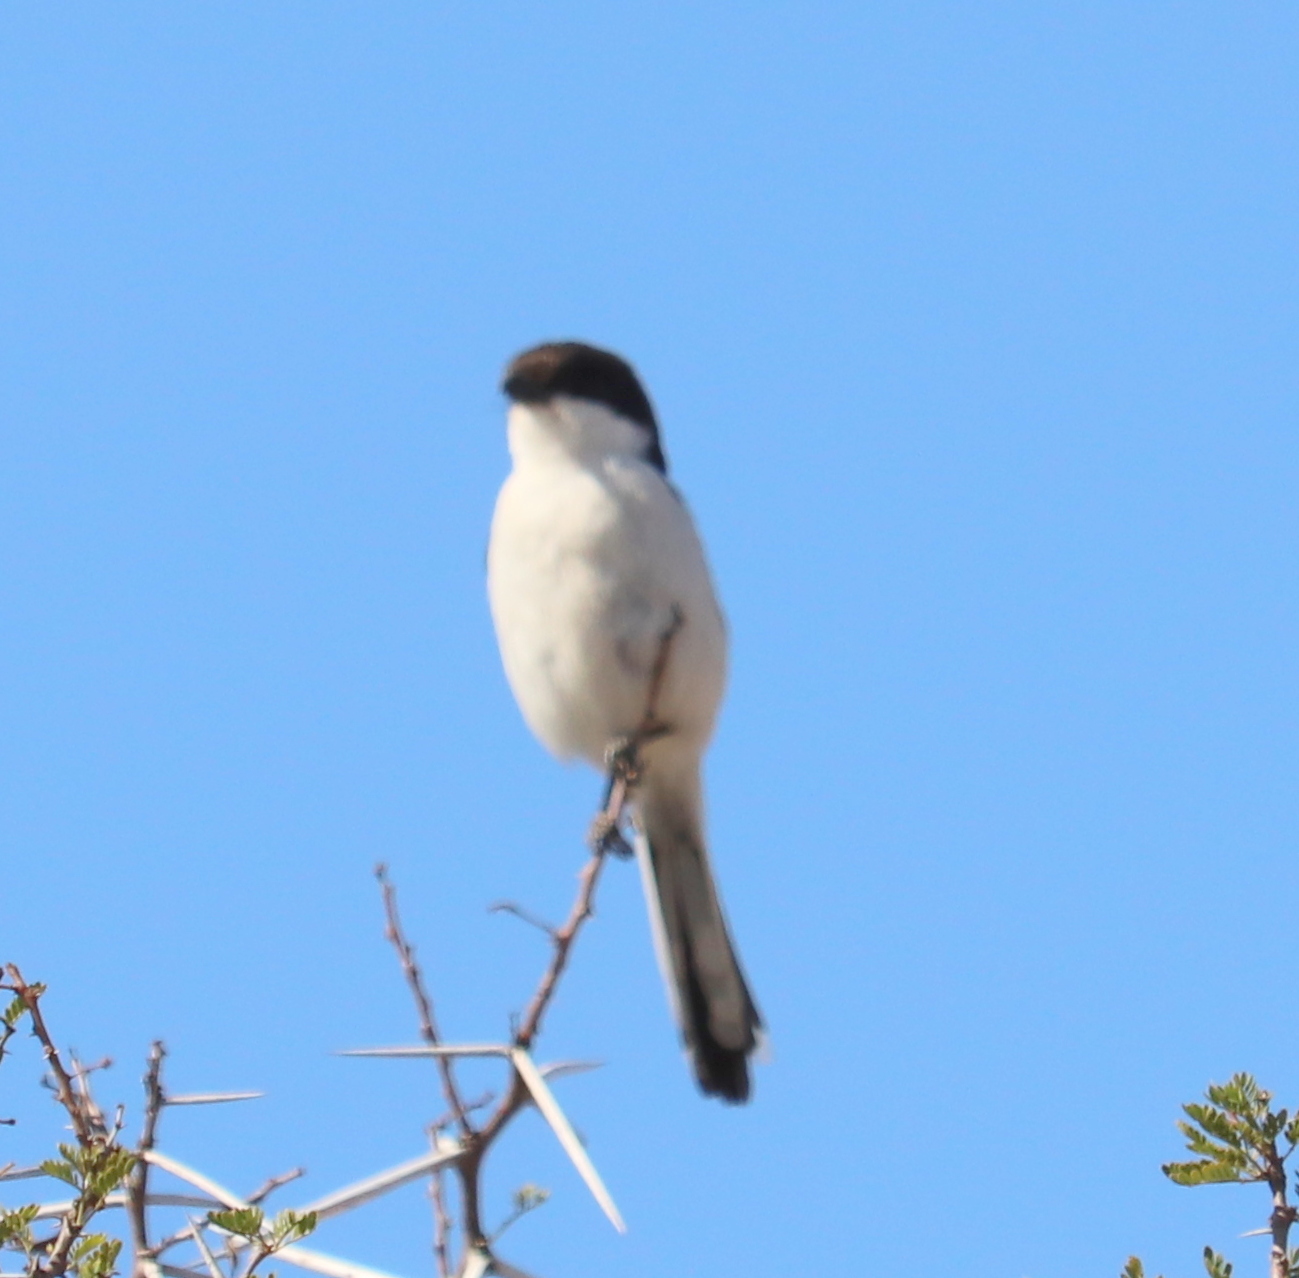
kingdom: Animalia
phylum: Chordata
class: Aves
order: Passeriformes
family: Laniidae
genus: Lanius
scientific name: Lanius collaris
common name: Southern fiscal
